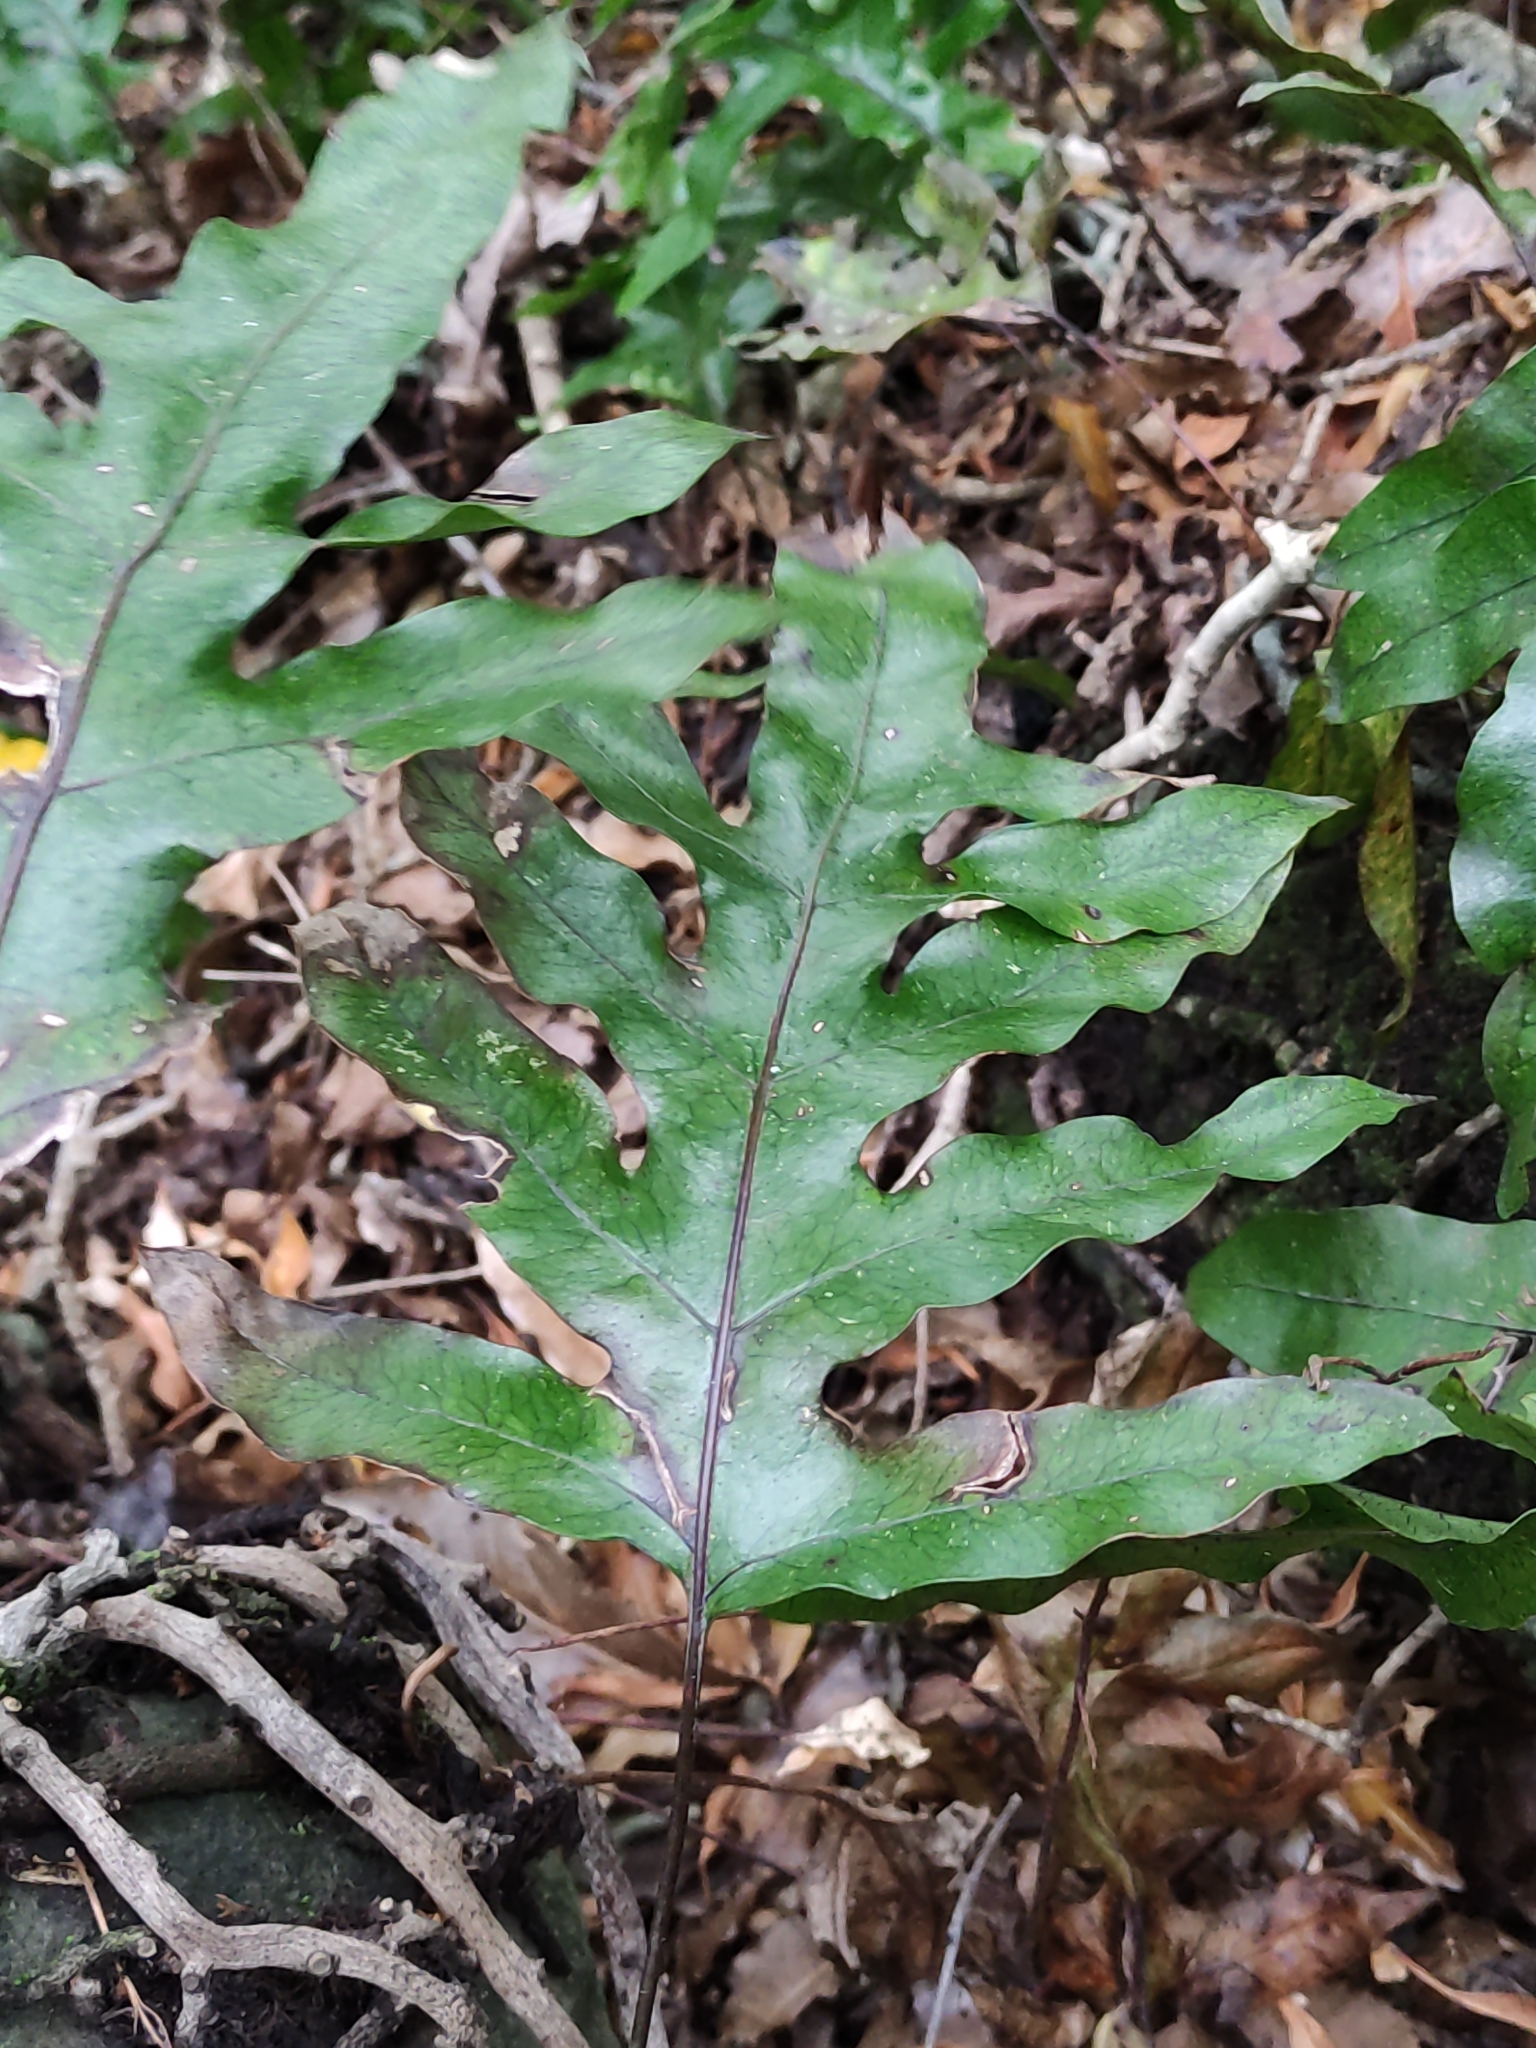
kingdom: Plantae
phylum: Tracheophyta
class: Polypodiopsida
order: Polypodiales
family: Polypodiaceae
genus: Lecanopteris
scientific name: Lecanopteris pustulata
